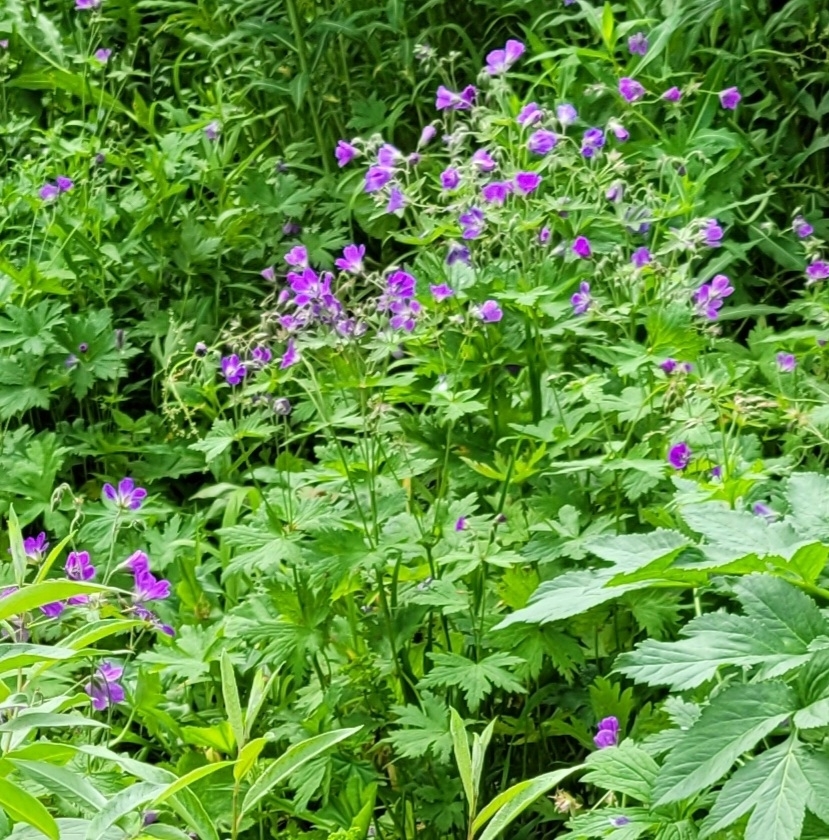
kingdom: Plantae
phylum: Tracheophyta
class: Magnoliopsida
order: Geraniales
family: Geraniaceae
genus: Geranium
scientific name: Geranium sylvaticum
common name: Wood crane's-bill
